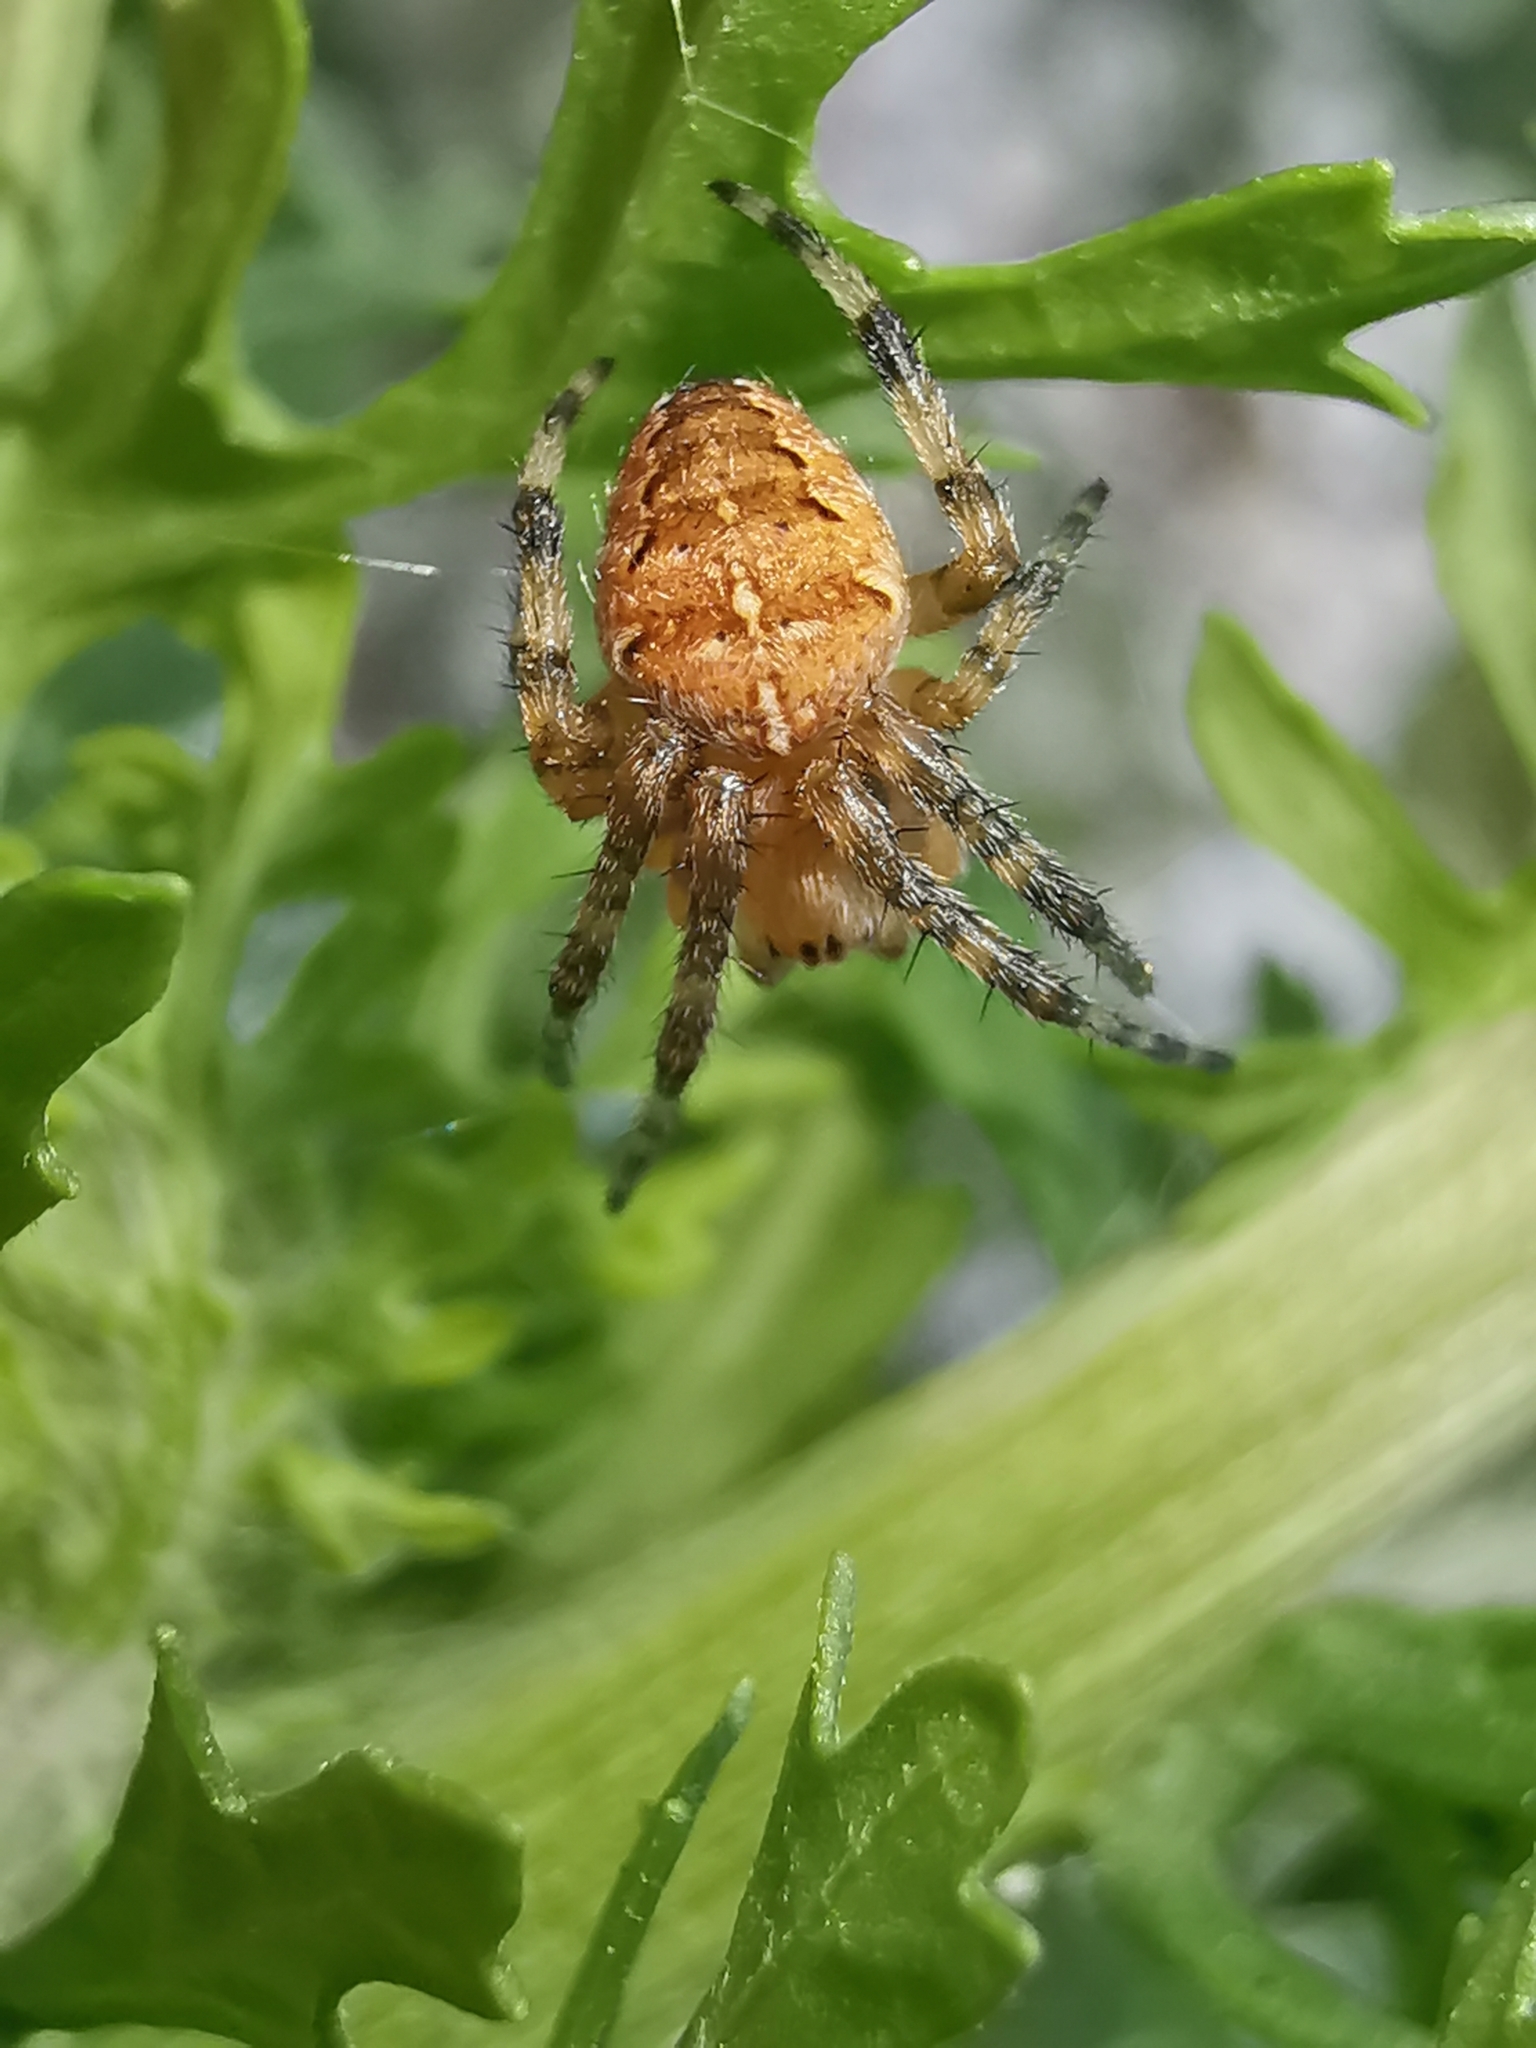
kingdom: Animalia
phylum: Arthropoda
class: Arachnida
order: Araneae
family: Araneidae
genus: Araneus
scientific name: Araneus diadematus
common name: Cross orbweaver
